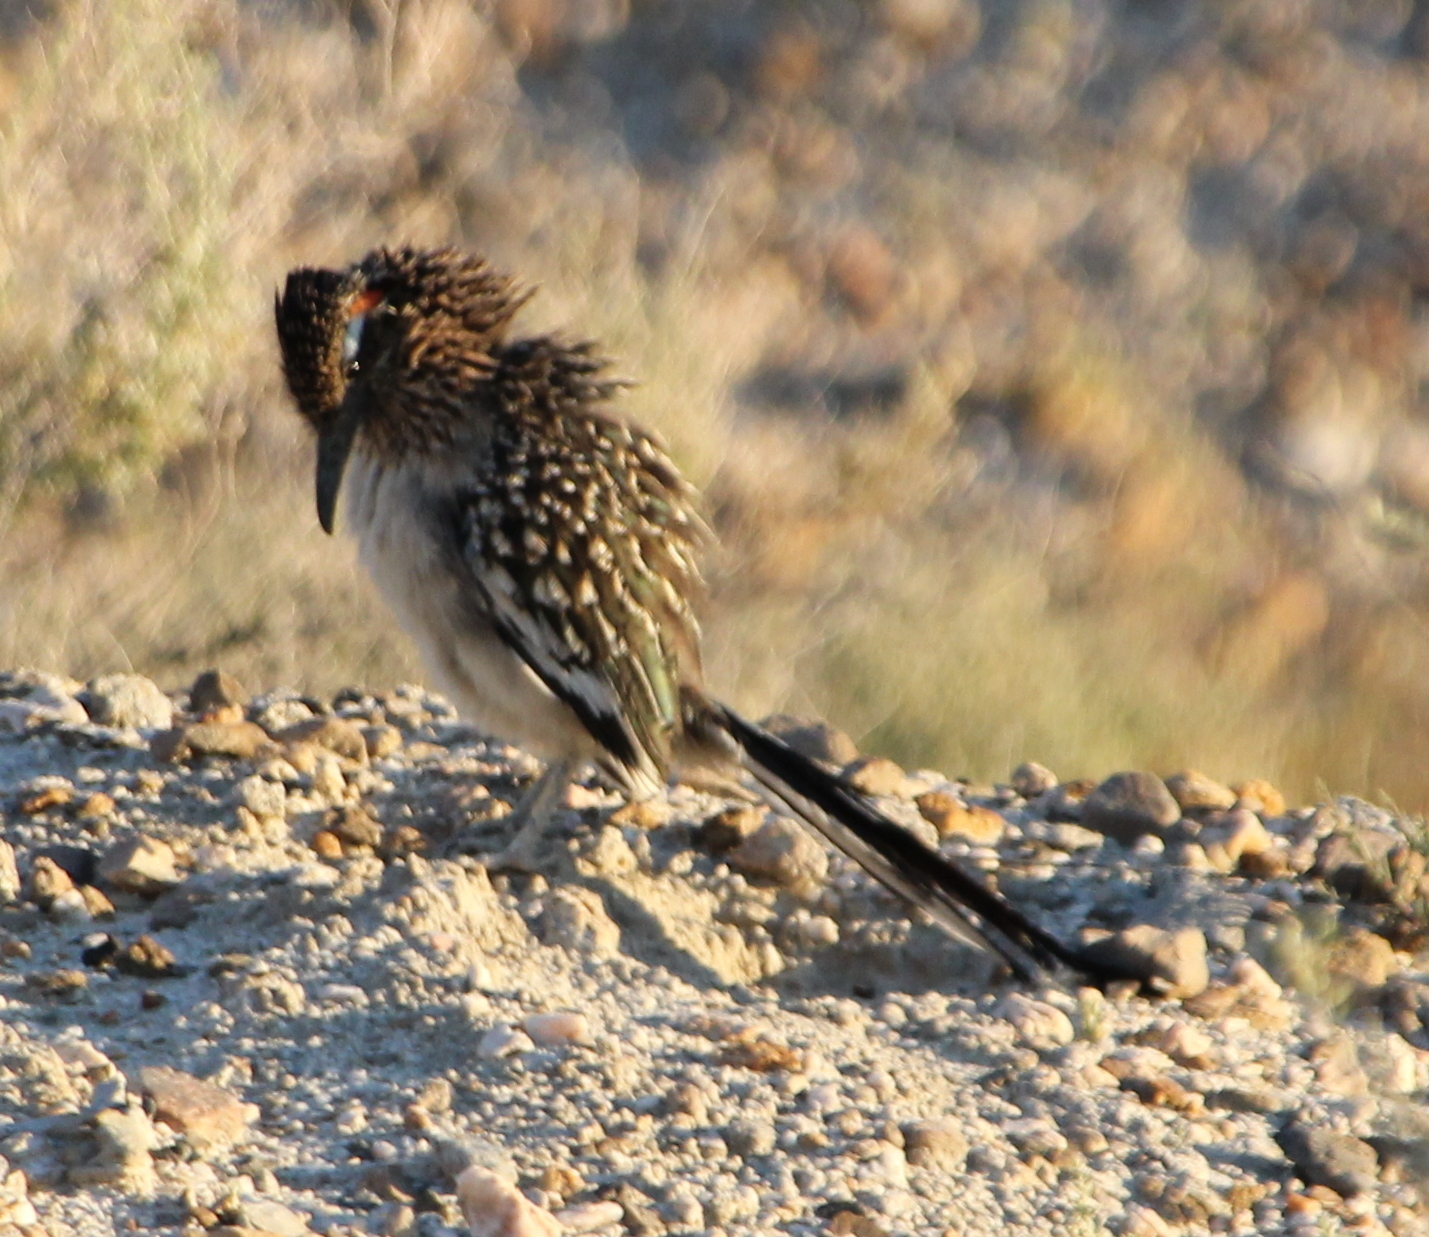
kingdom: Animalia
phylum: Chordata
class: Aves
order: Cuculiformes
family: Cuculidae
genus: Geococcyx
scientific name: Geococcyx californianus
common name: Greater roadrunner
